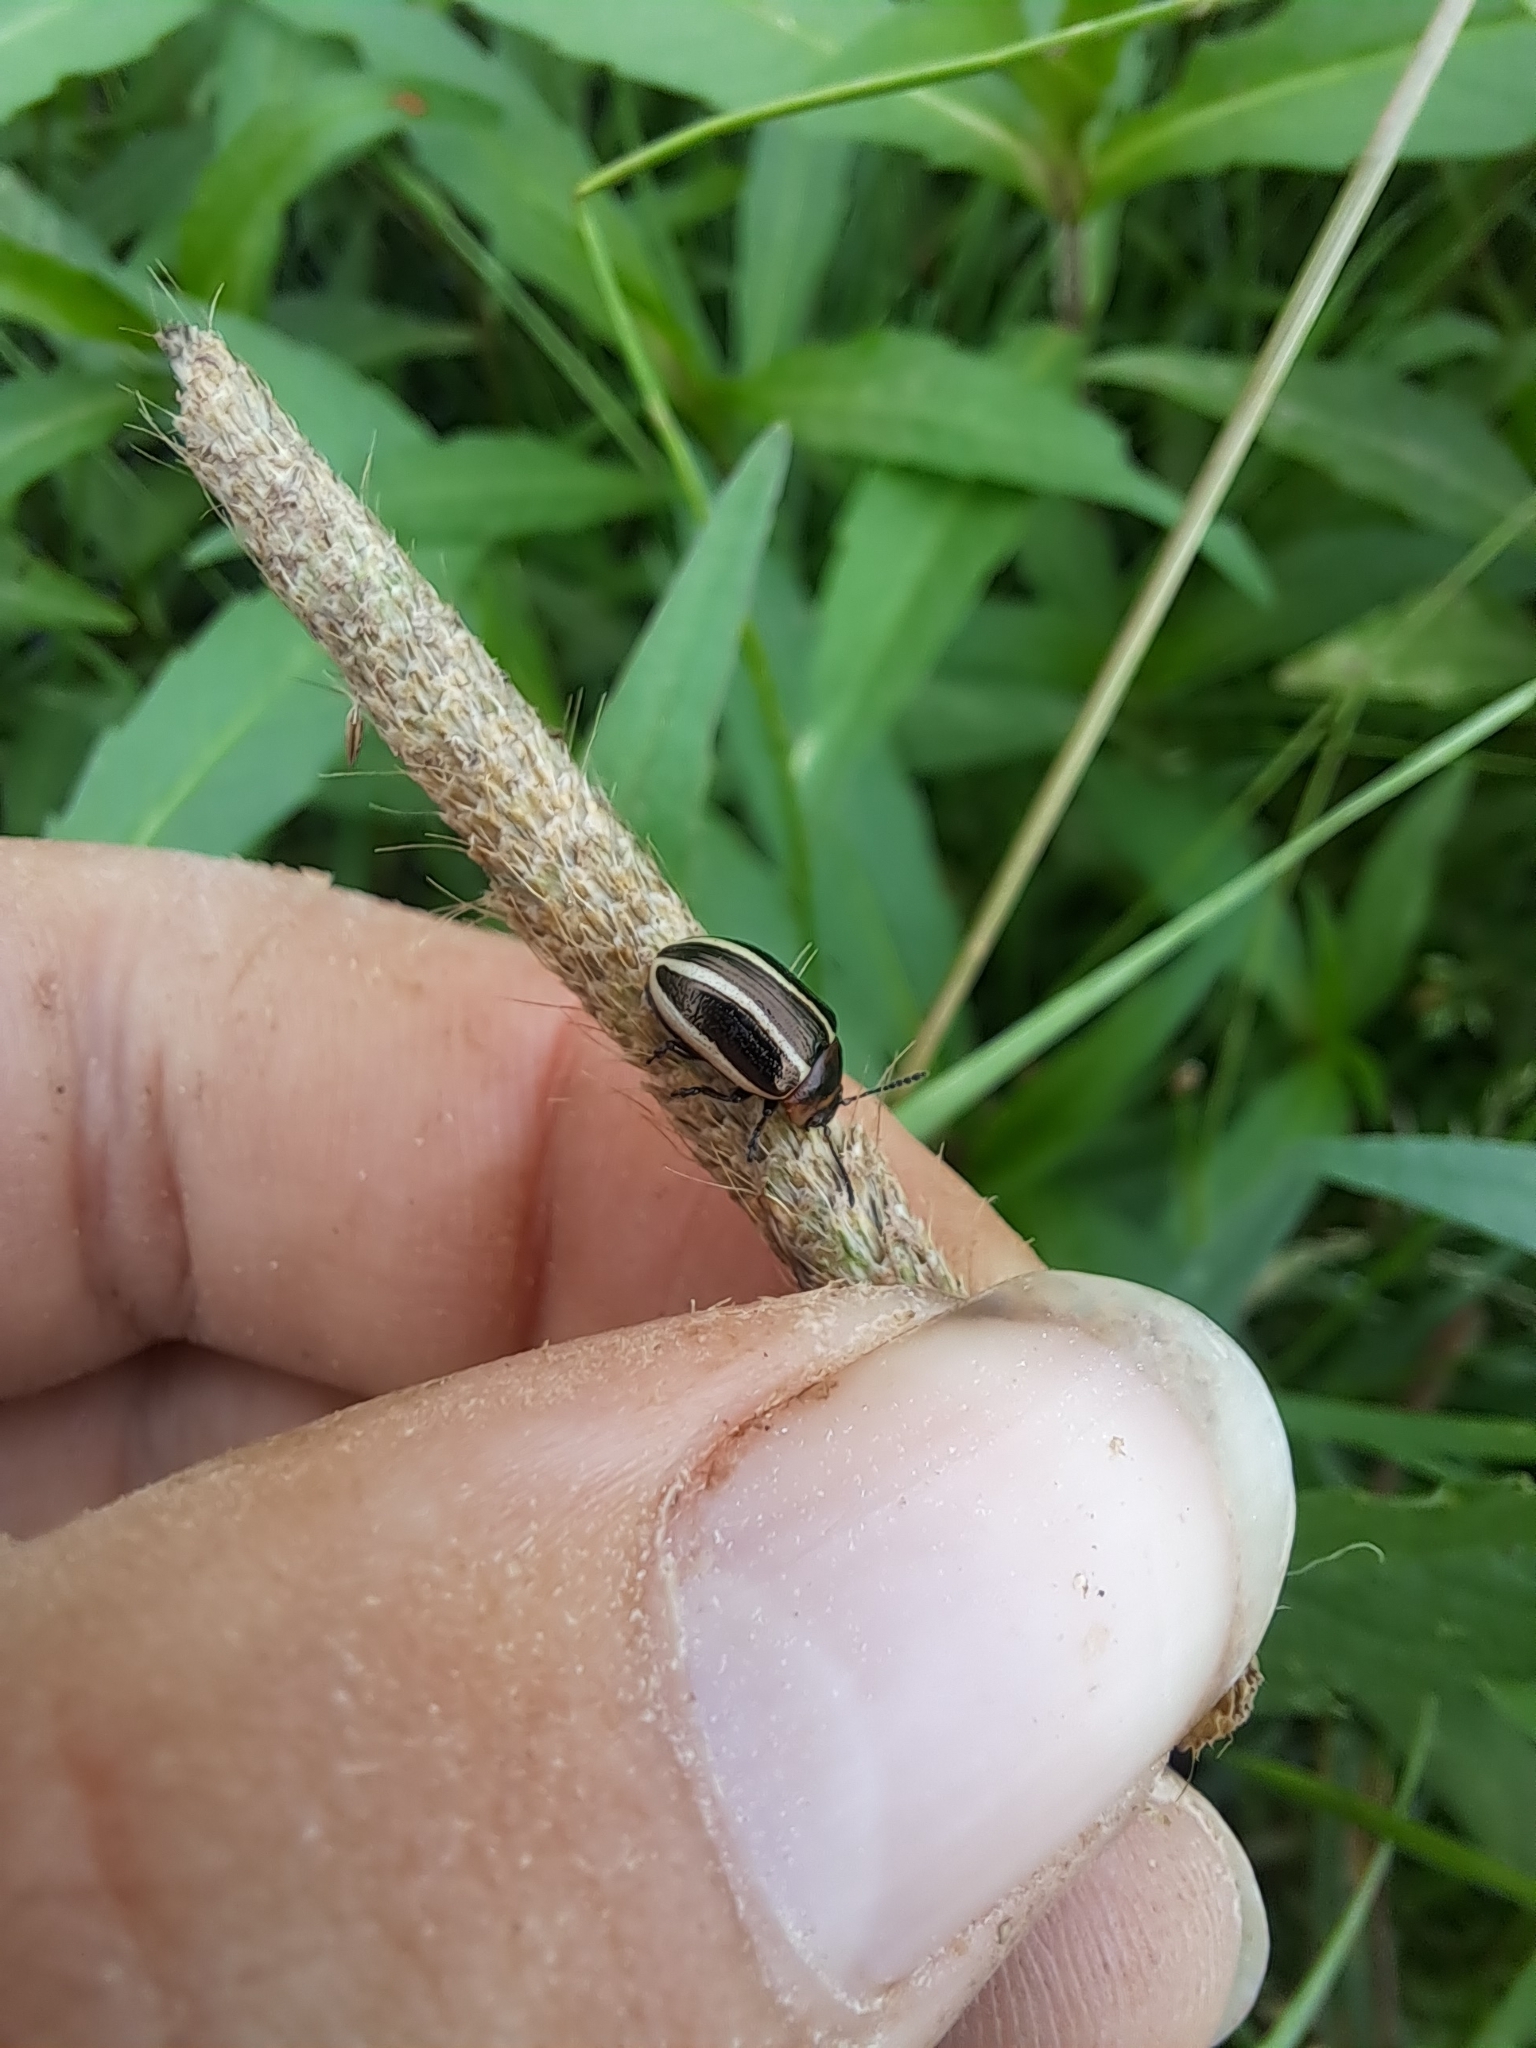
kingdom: Animalia
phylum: Arthropoda
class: Insecta
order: Coleoptera
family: Chrysomelidae
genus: Calligrapha
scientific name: Calligrapha californica
